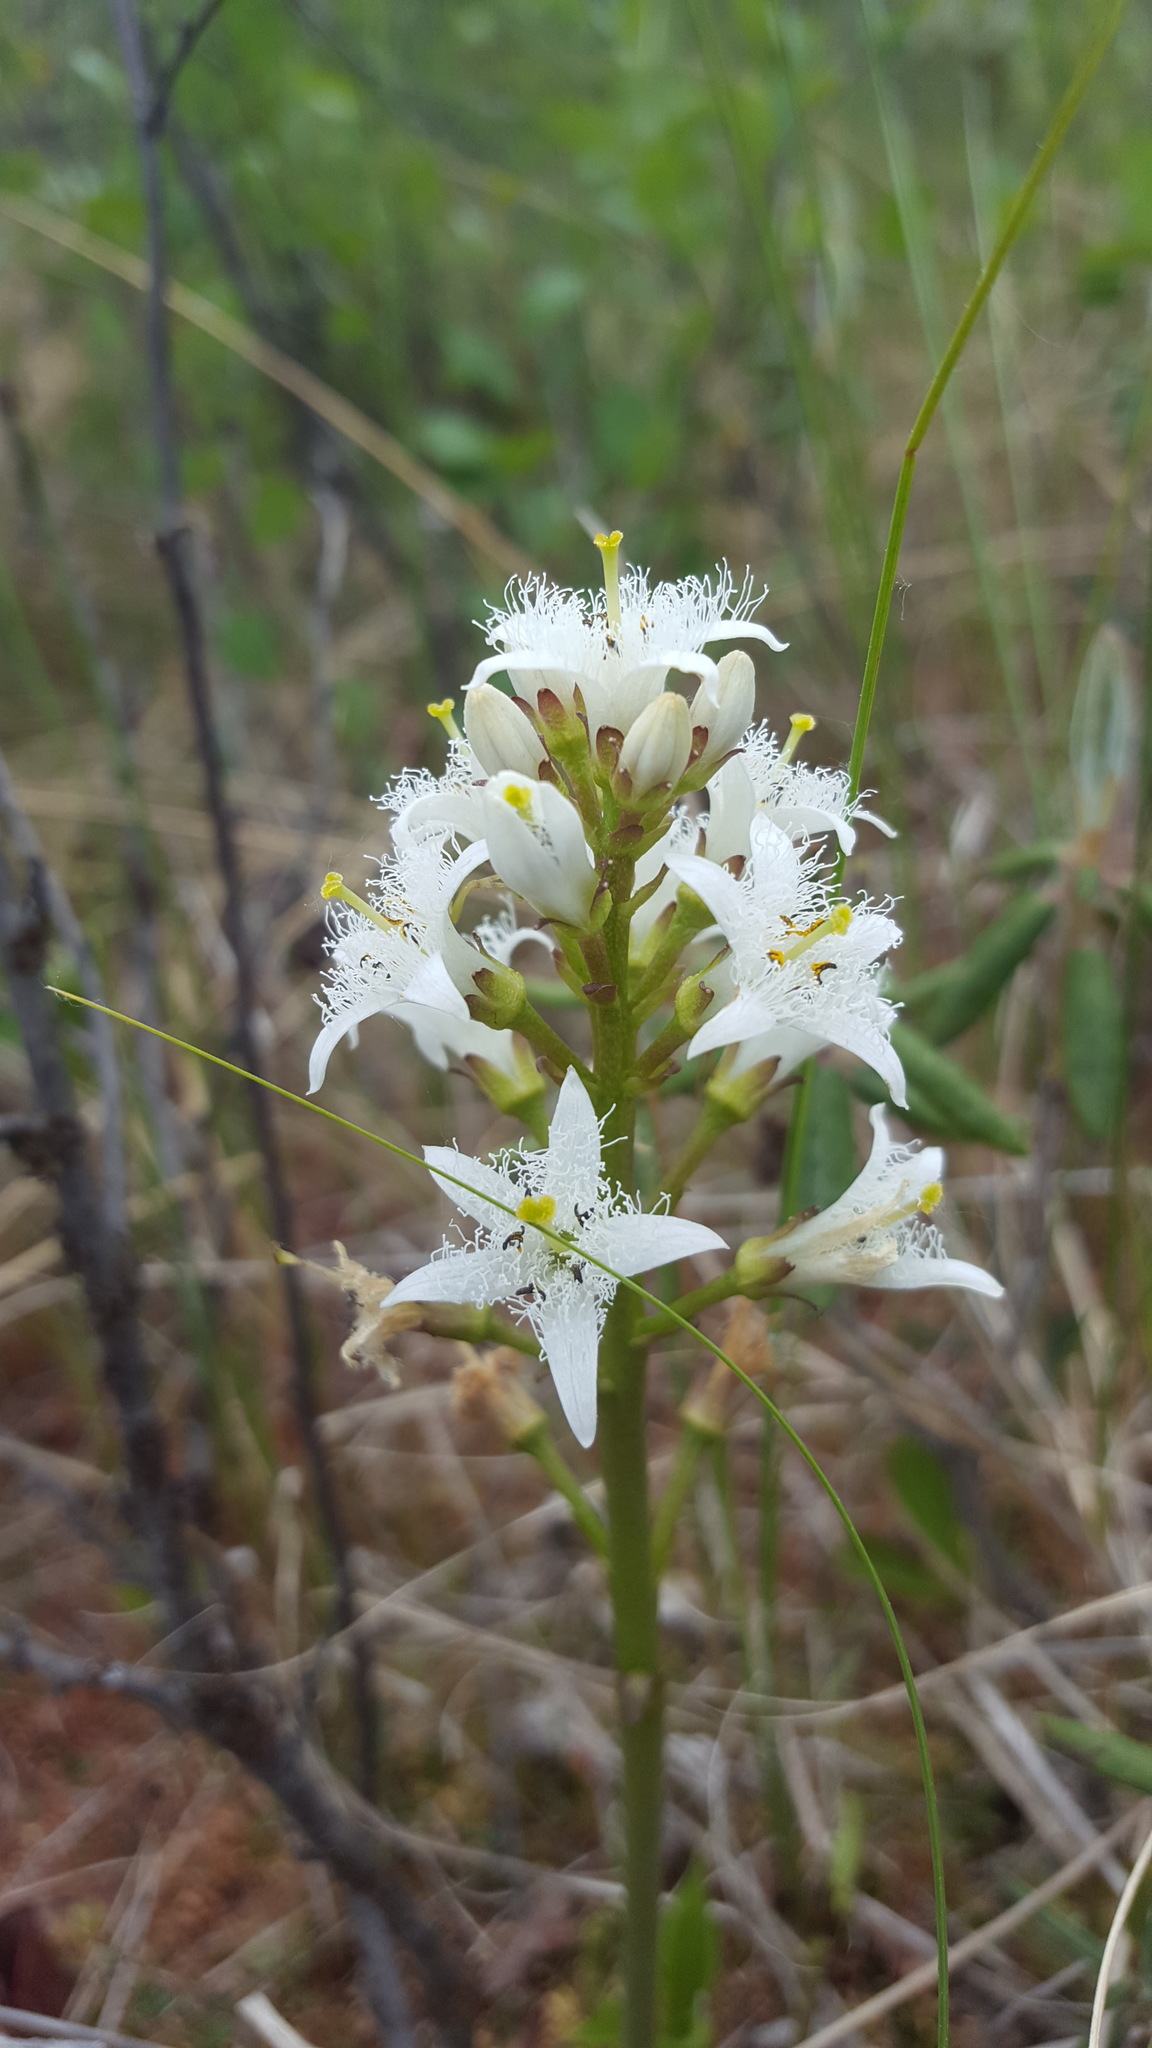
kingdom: Plantae
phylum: Tracheophyta
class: Magnoliopsida
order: Asterales
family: Menyanthaceae
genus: Menyanthes
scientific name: Menyanthes trifoliata
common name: Bogbean
